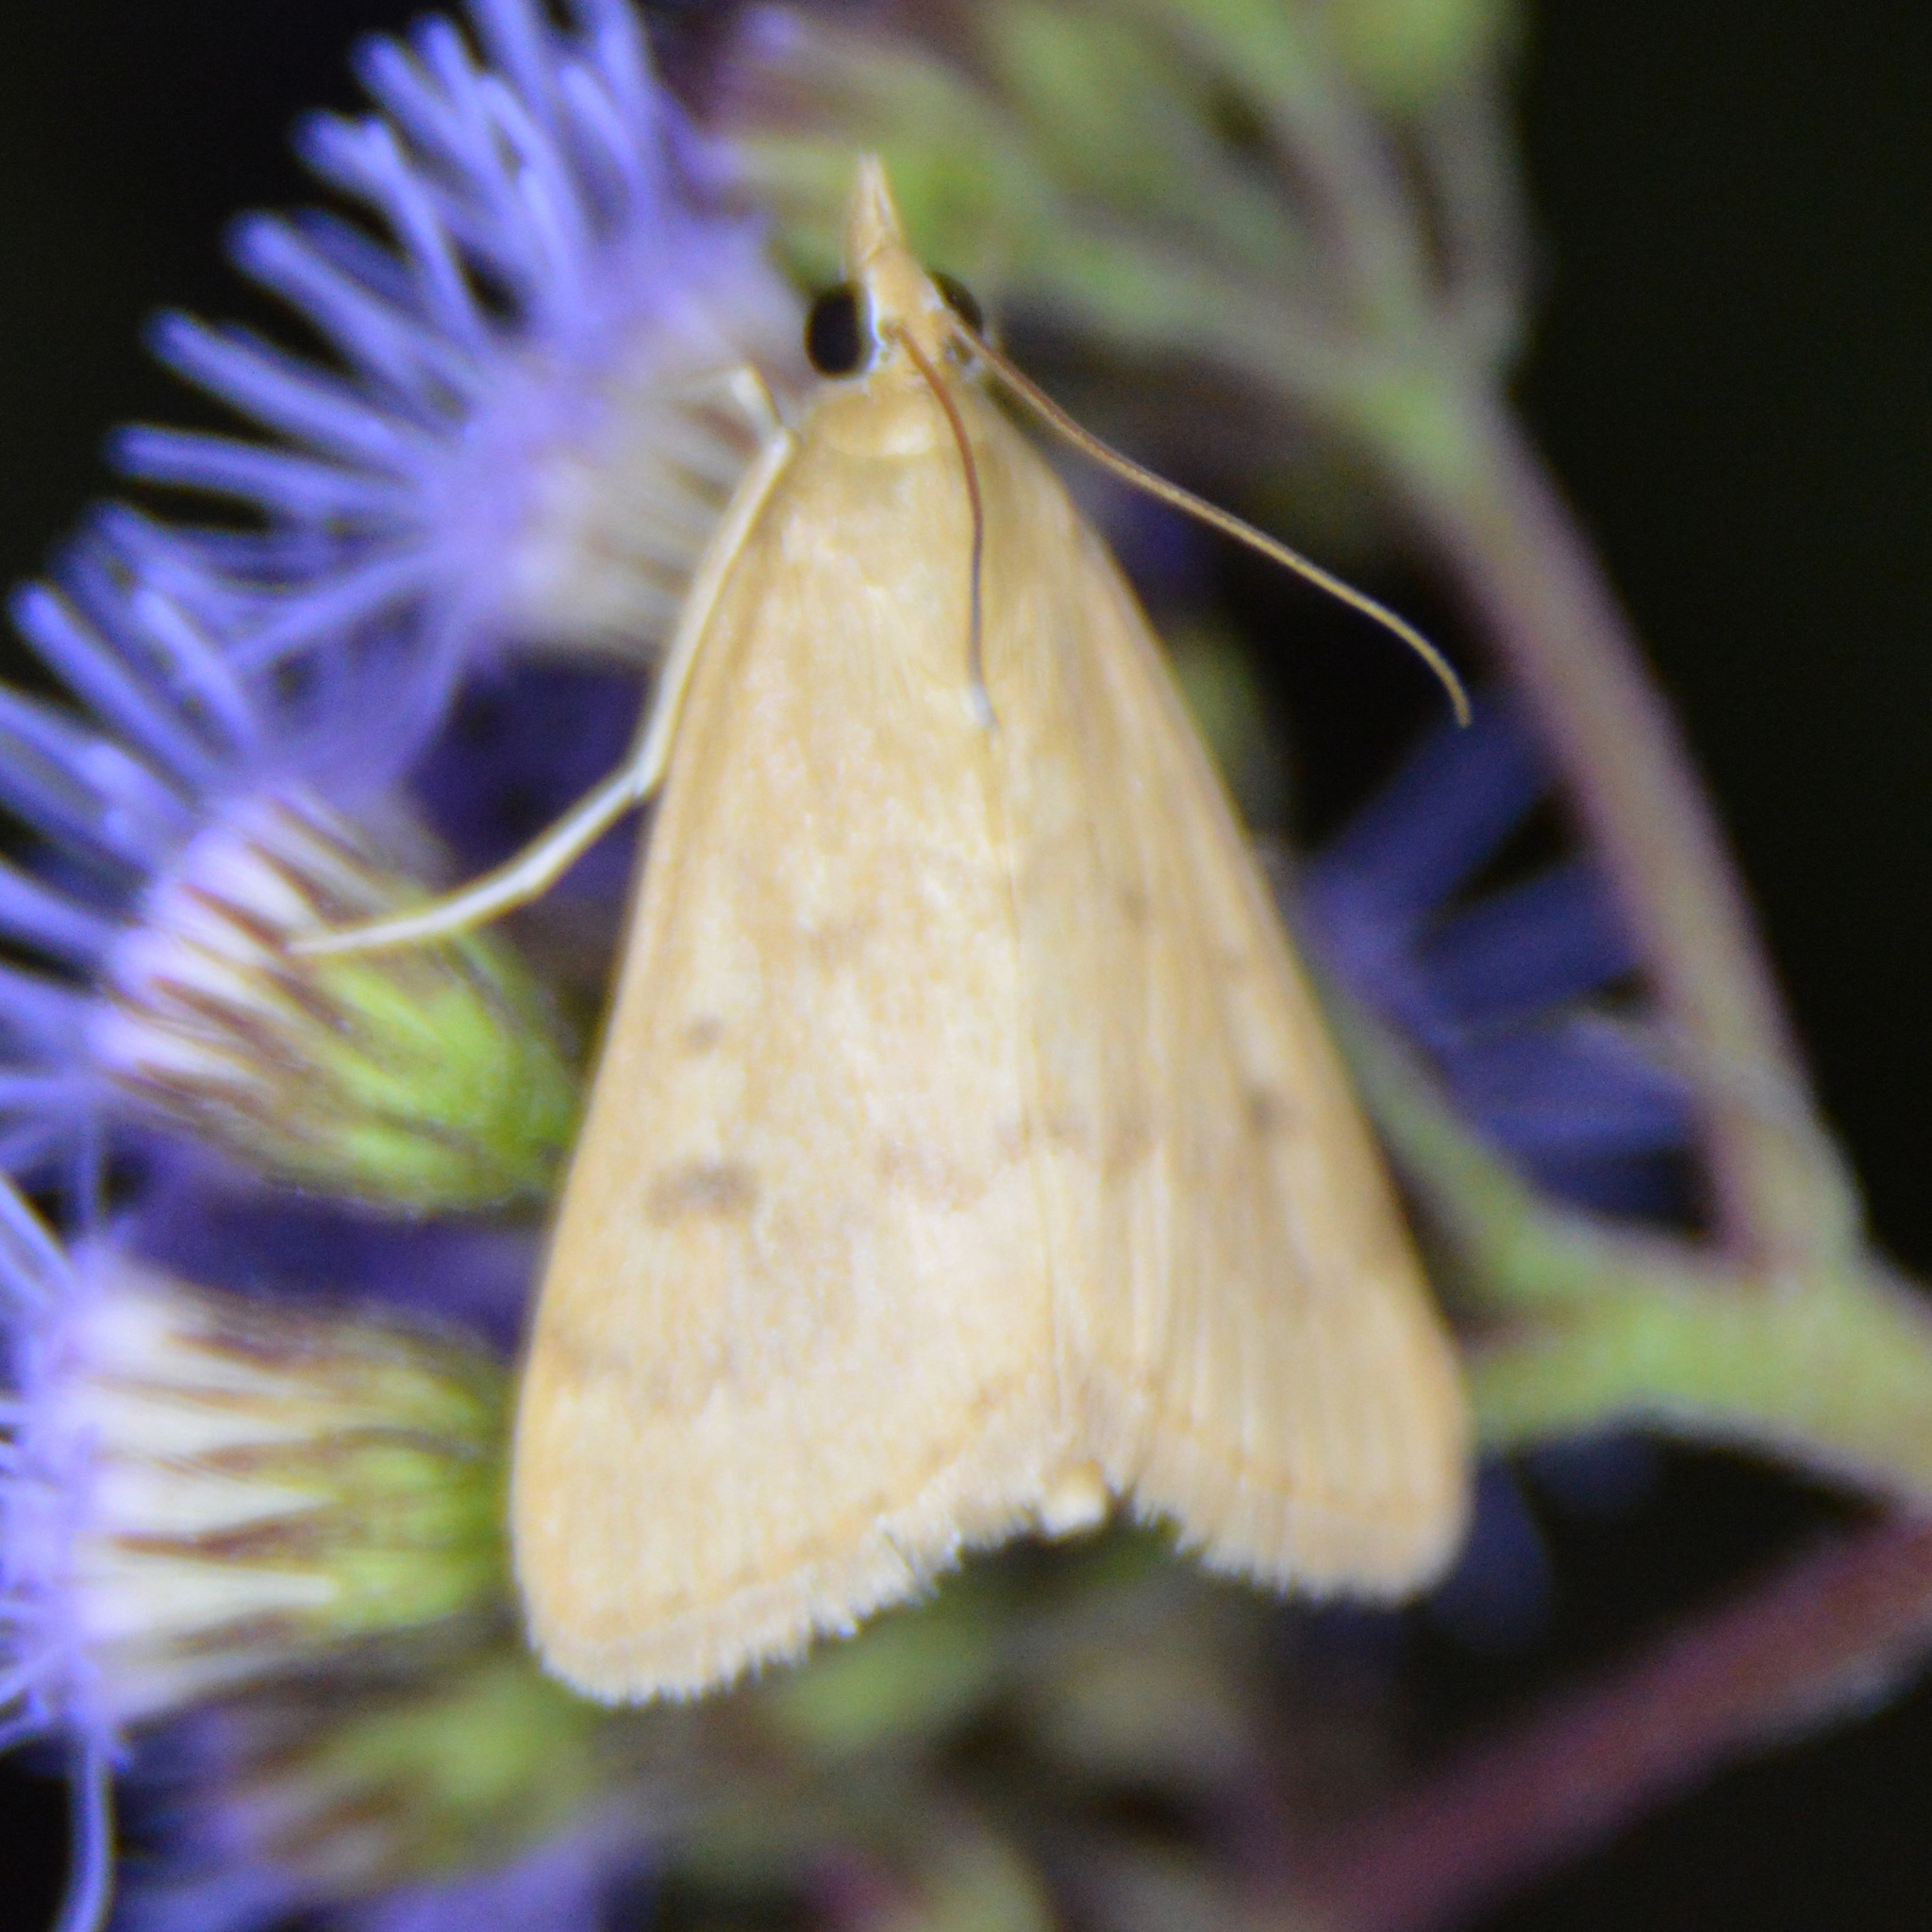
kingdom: Animalia
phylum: Arthropoda
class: Insecta
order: Lepidoptera
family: Crambidae
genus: Achyra
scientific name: Achyra rantalis
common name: Garden webworm
